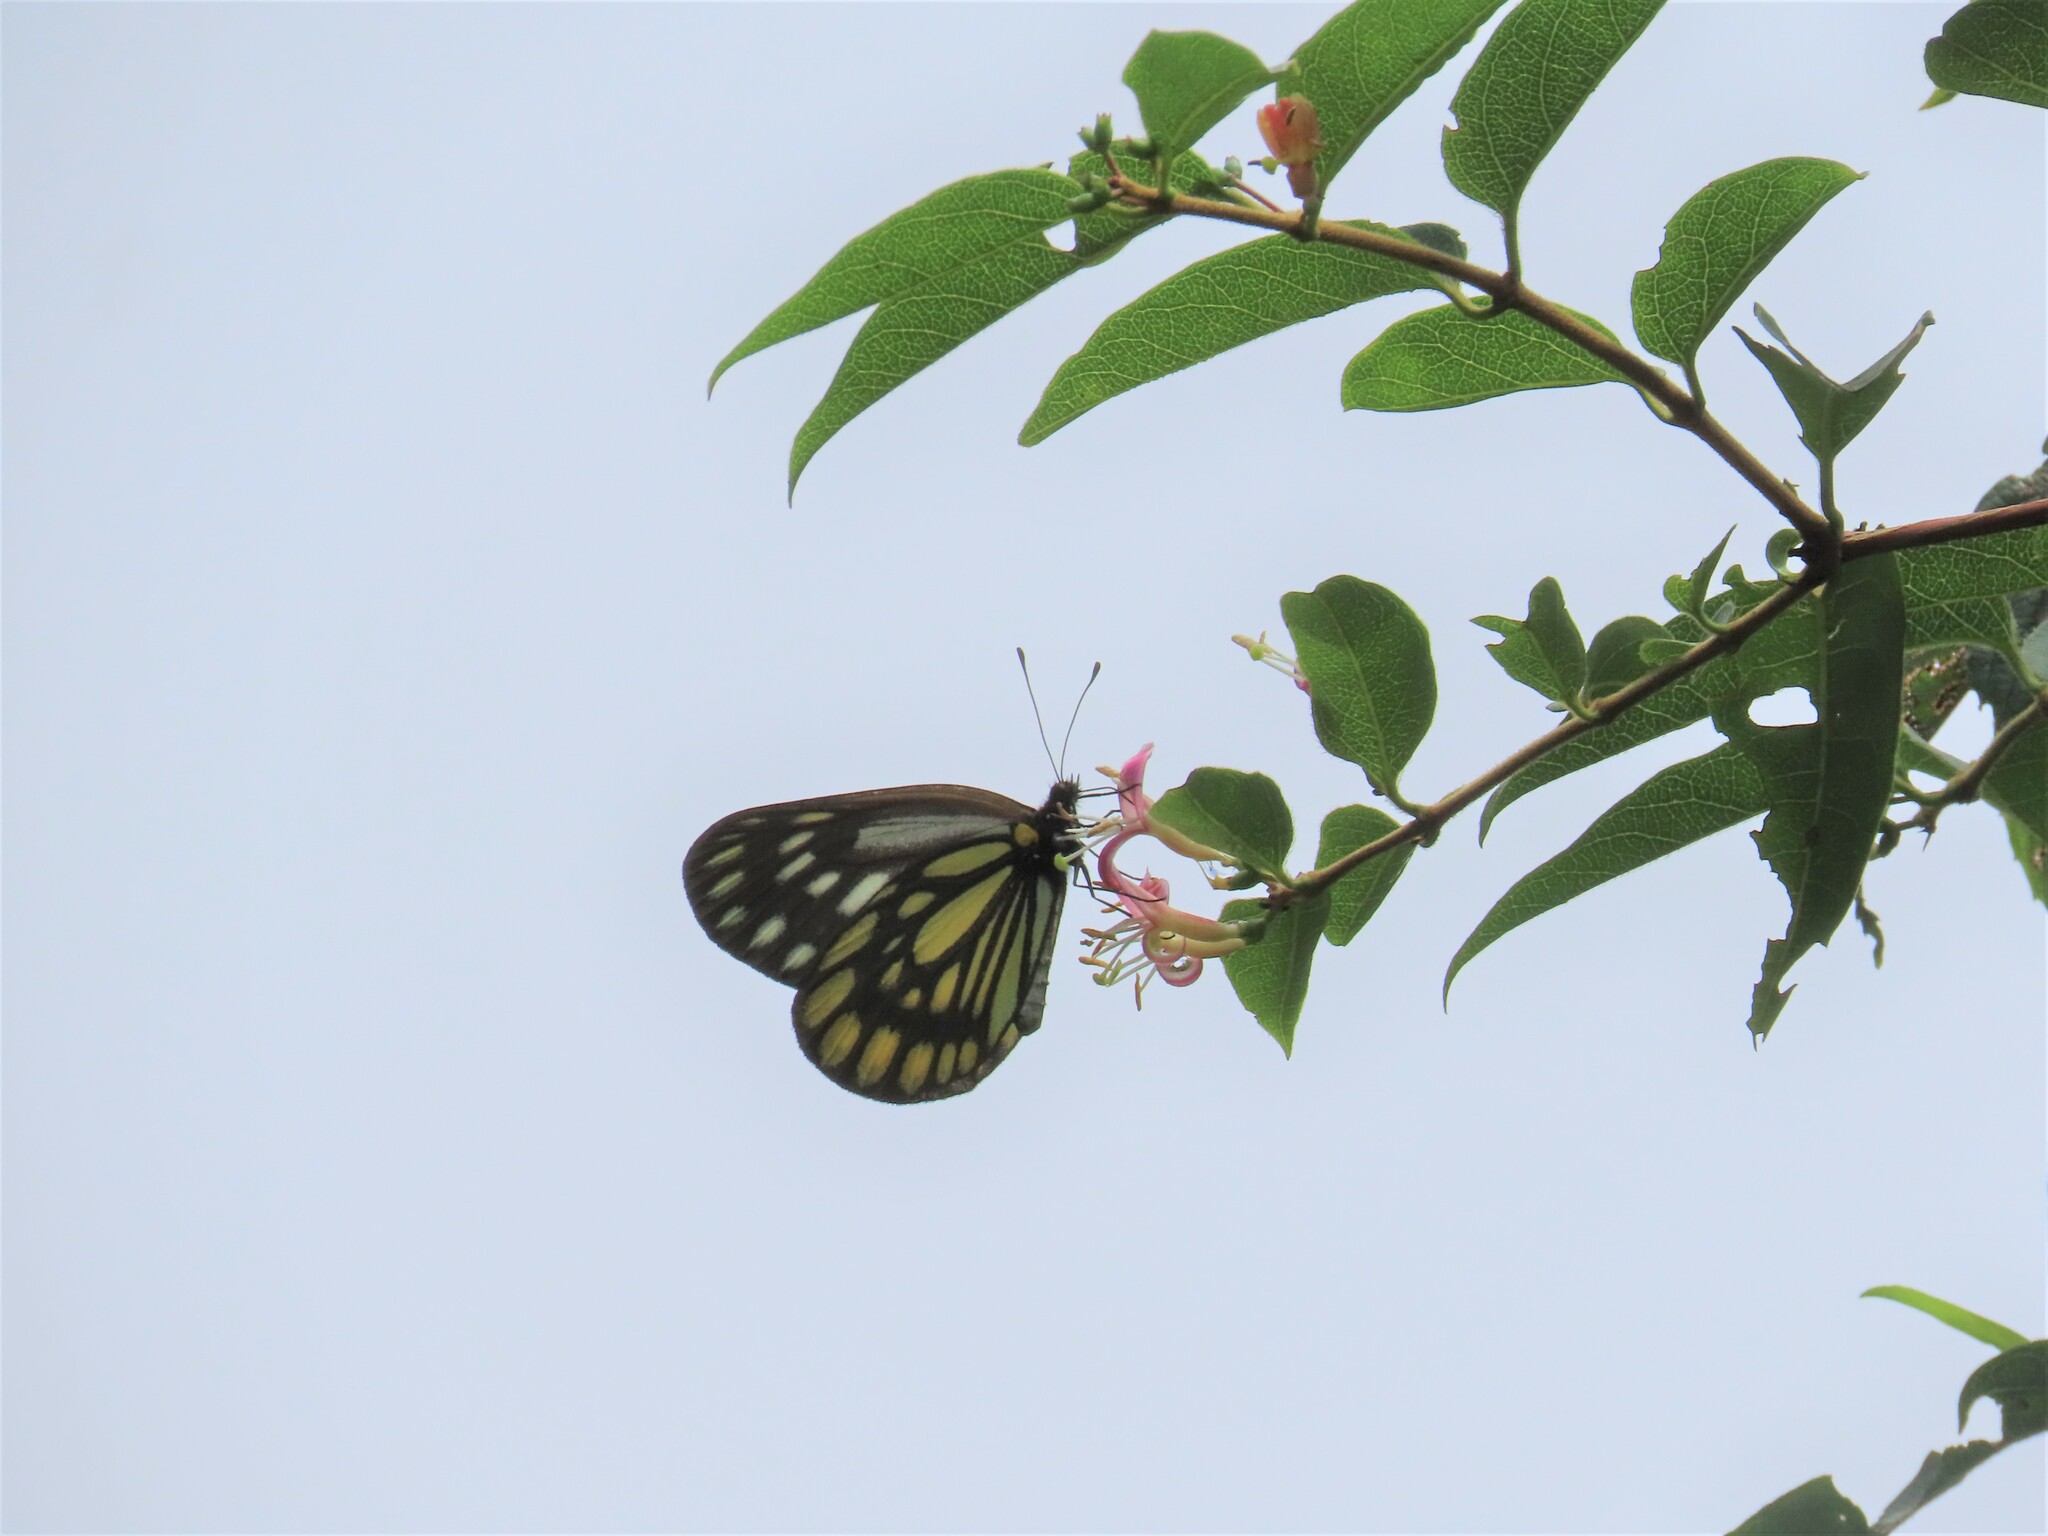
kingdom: Animalia
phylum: Arthropoda
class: Insecta
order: Lepidoptera
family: Pieridae
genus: Aporia
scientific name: Aporia agathon
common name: Great blackvein
